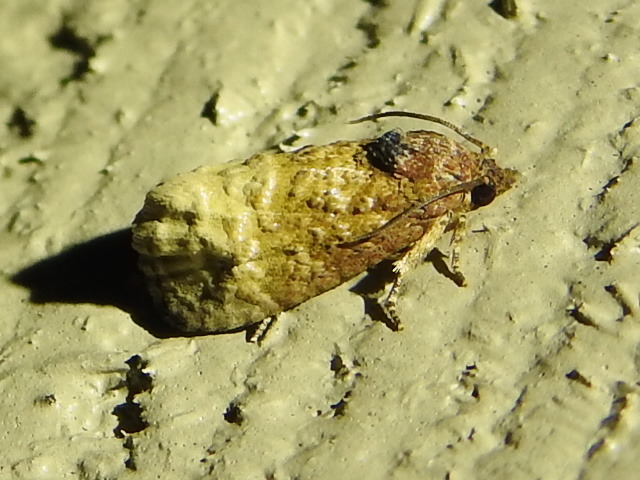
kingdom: Animalia
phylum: Arthropoda
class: Insecta
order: Lepidoptera
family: Tortricidae
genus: Ecdytolopha
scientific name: Ecdytolopha mana
